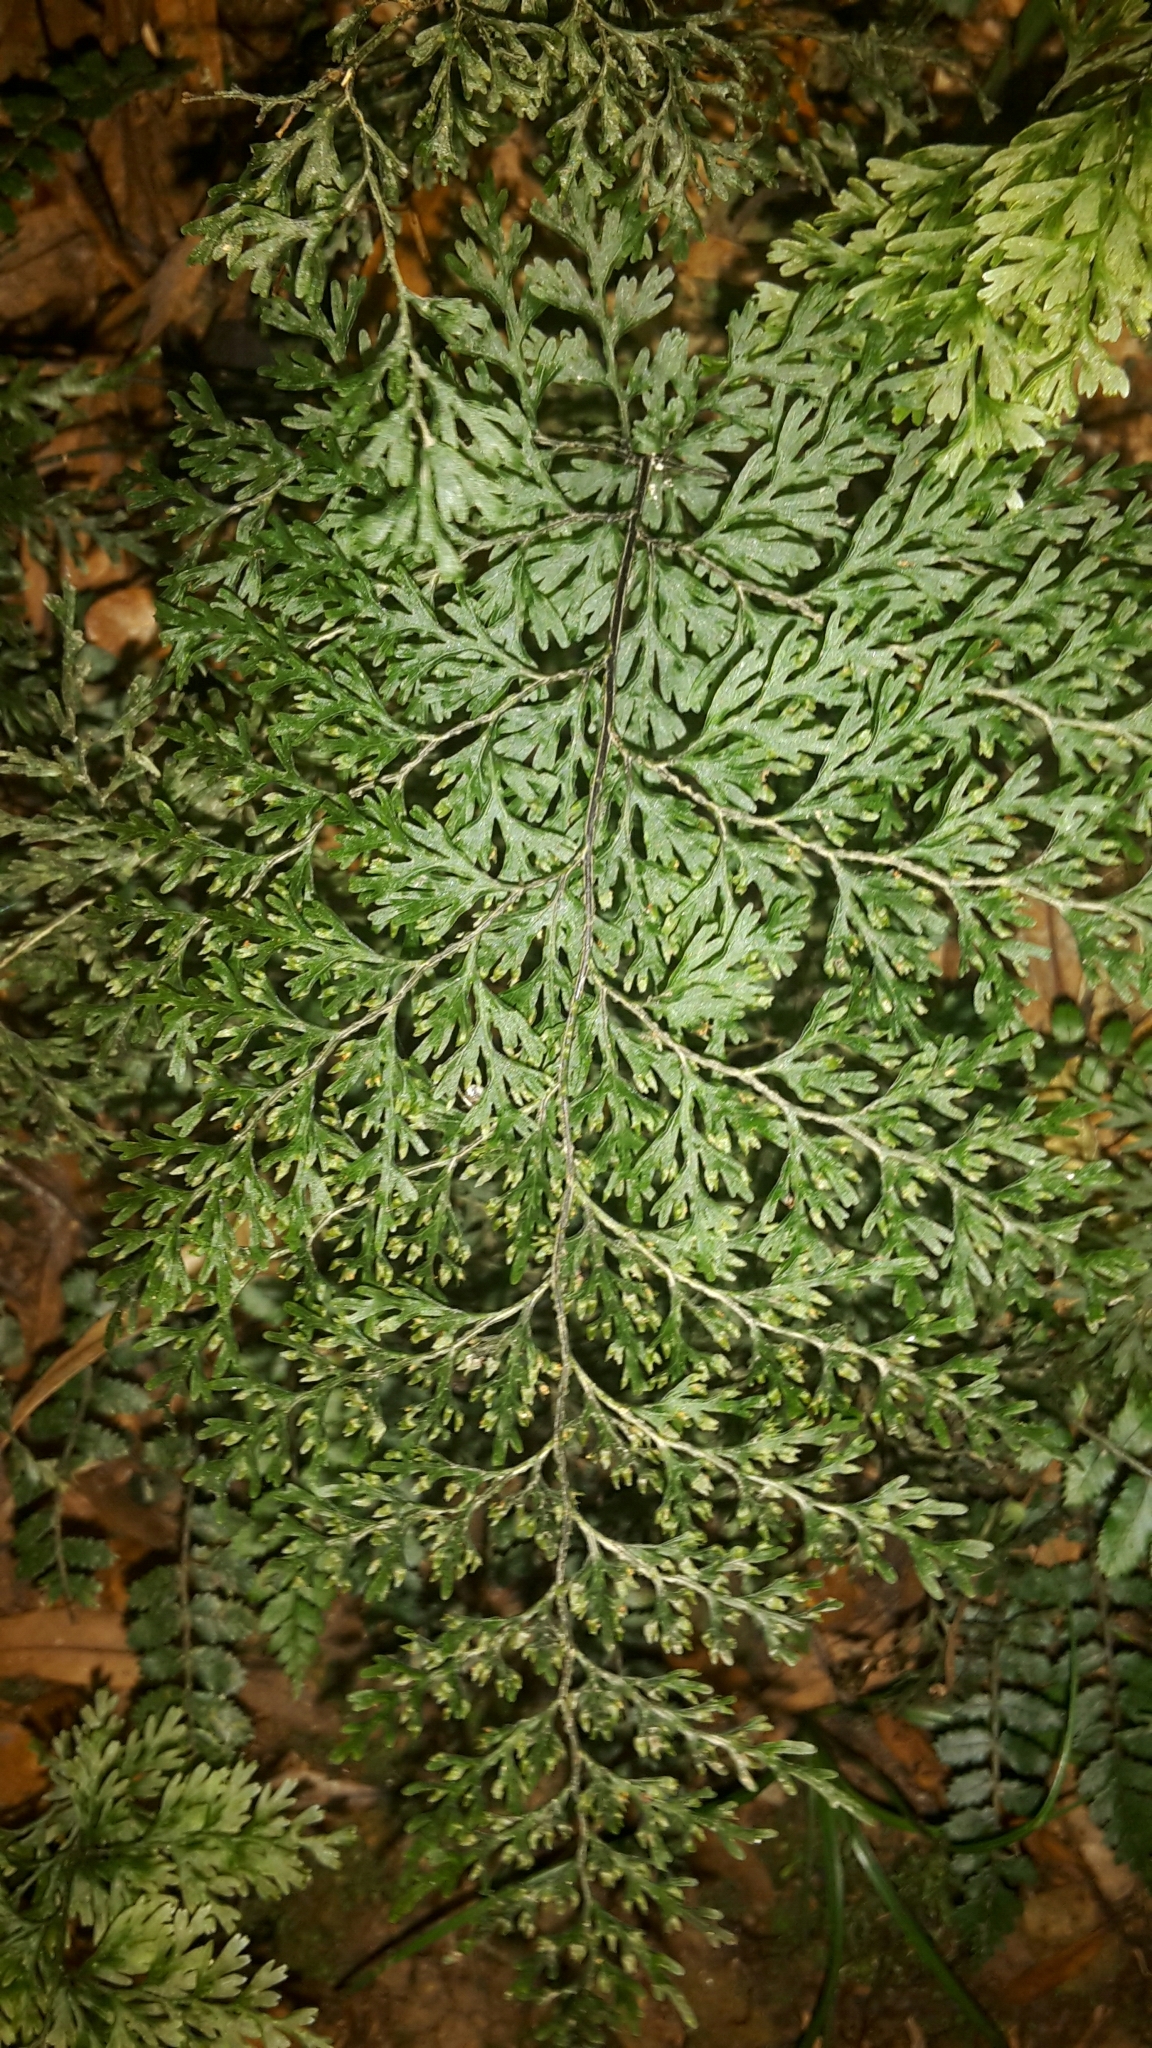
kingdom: Plantae
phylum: Tracheophyta
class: Polypodiopsida
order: Hymenophyllales
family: Hymenophyllaceae
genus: Hymenophyllum
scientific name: Hymenophyllum demissum
